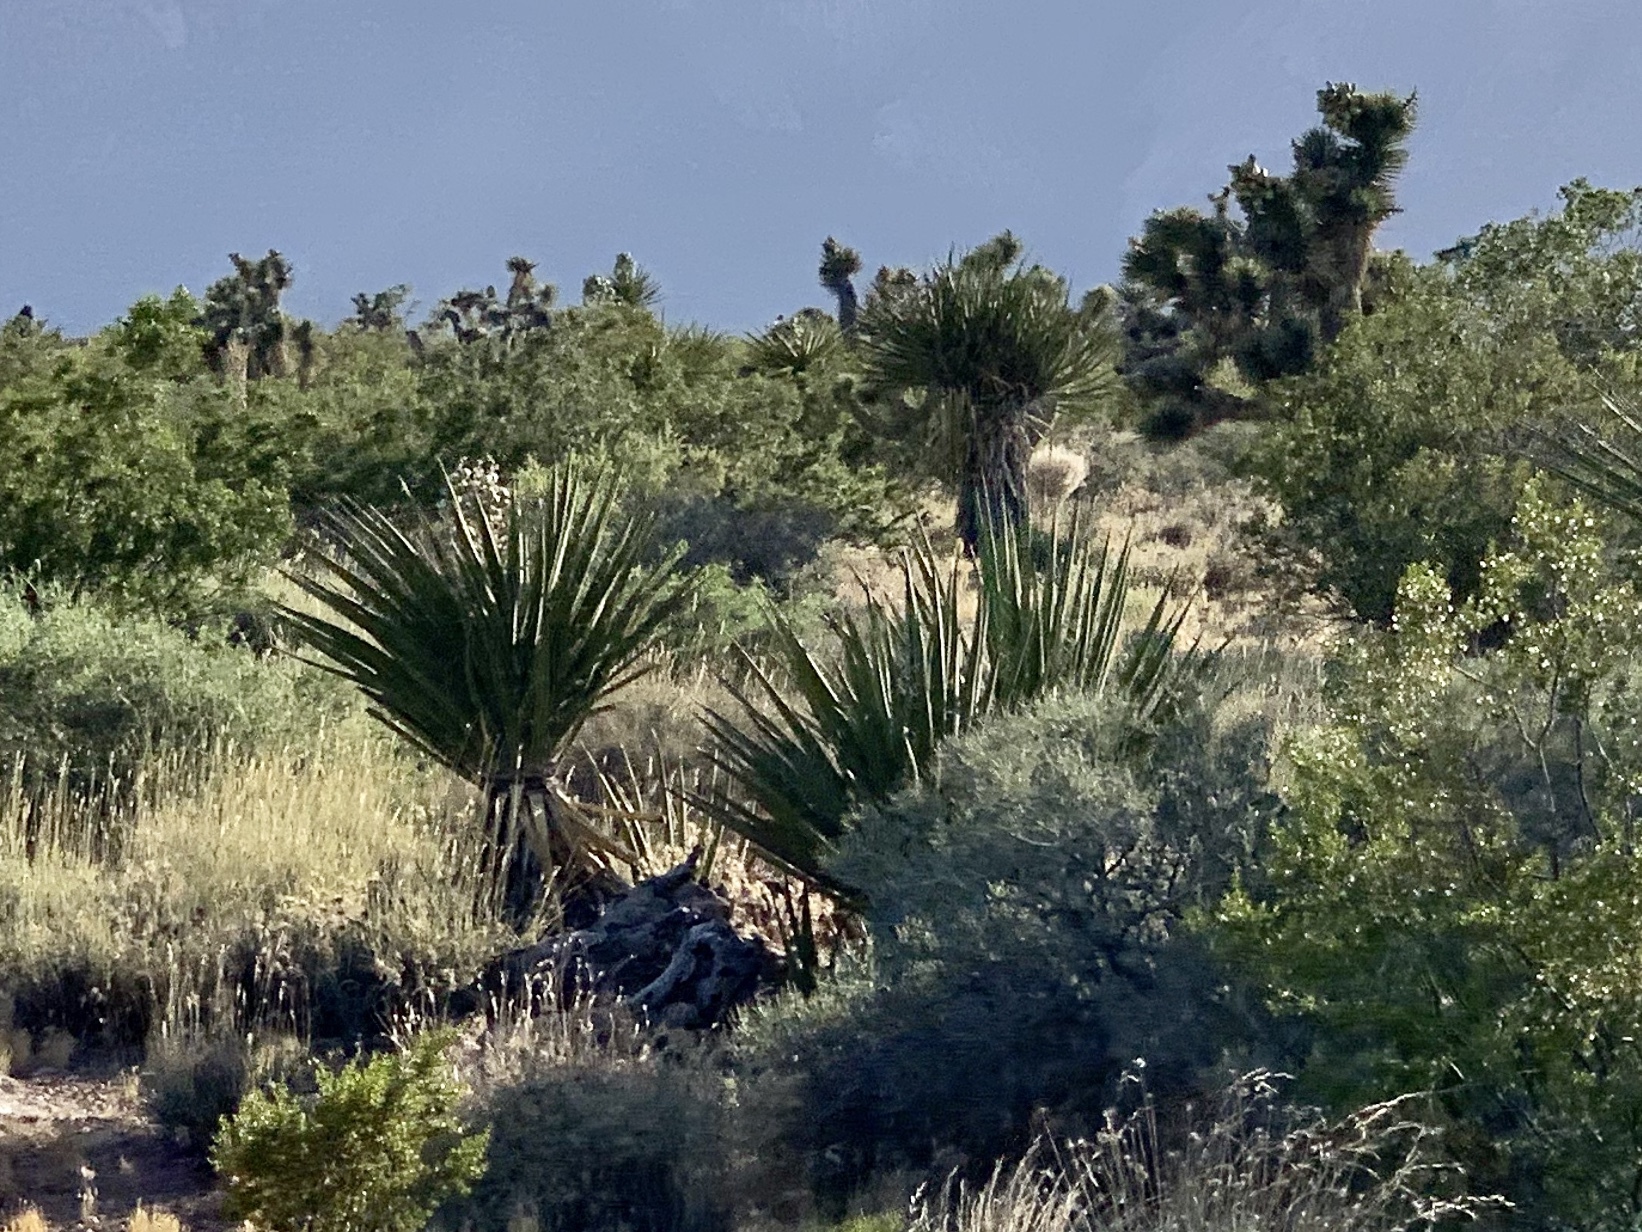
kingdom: Plantae
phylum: Tracheophyta
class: Liliopsida
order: Asparagales
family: Asparagaceae
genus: Yucca
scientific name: Yucca schidigera
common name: Mojave yucca
